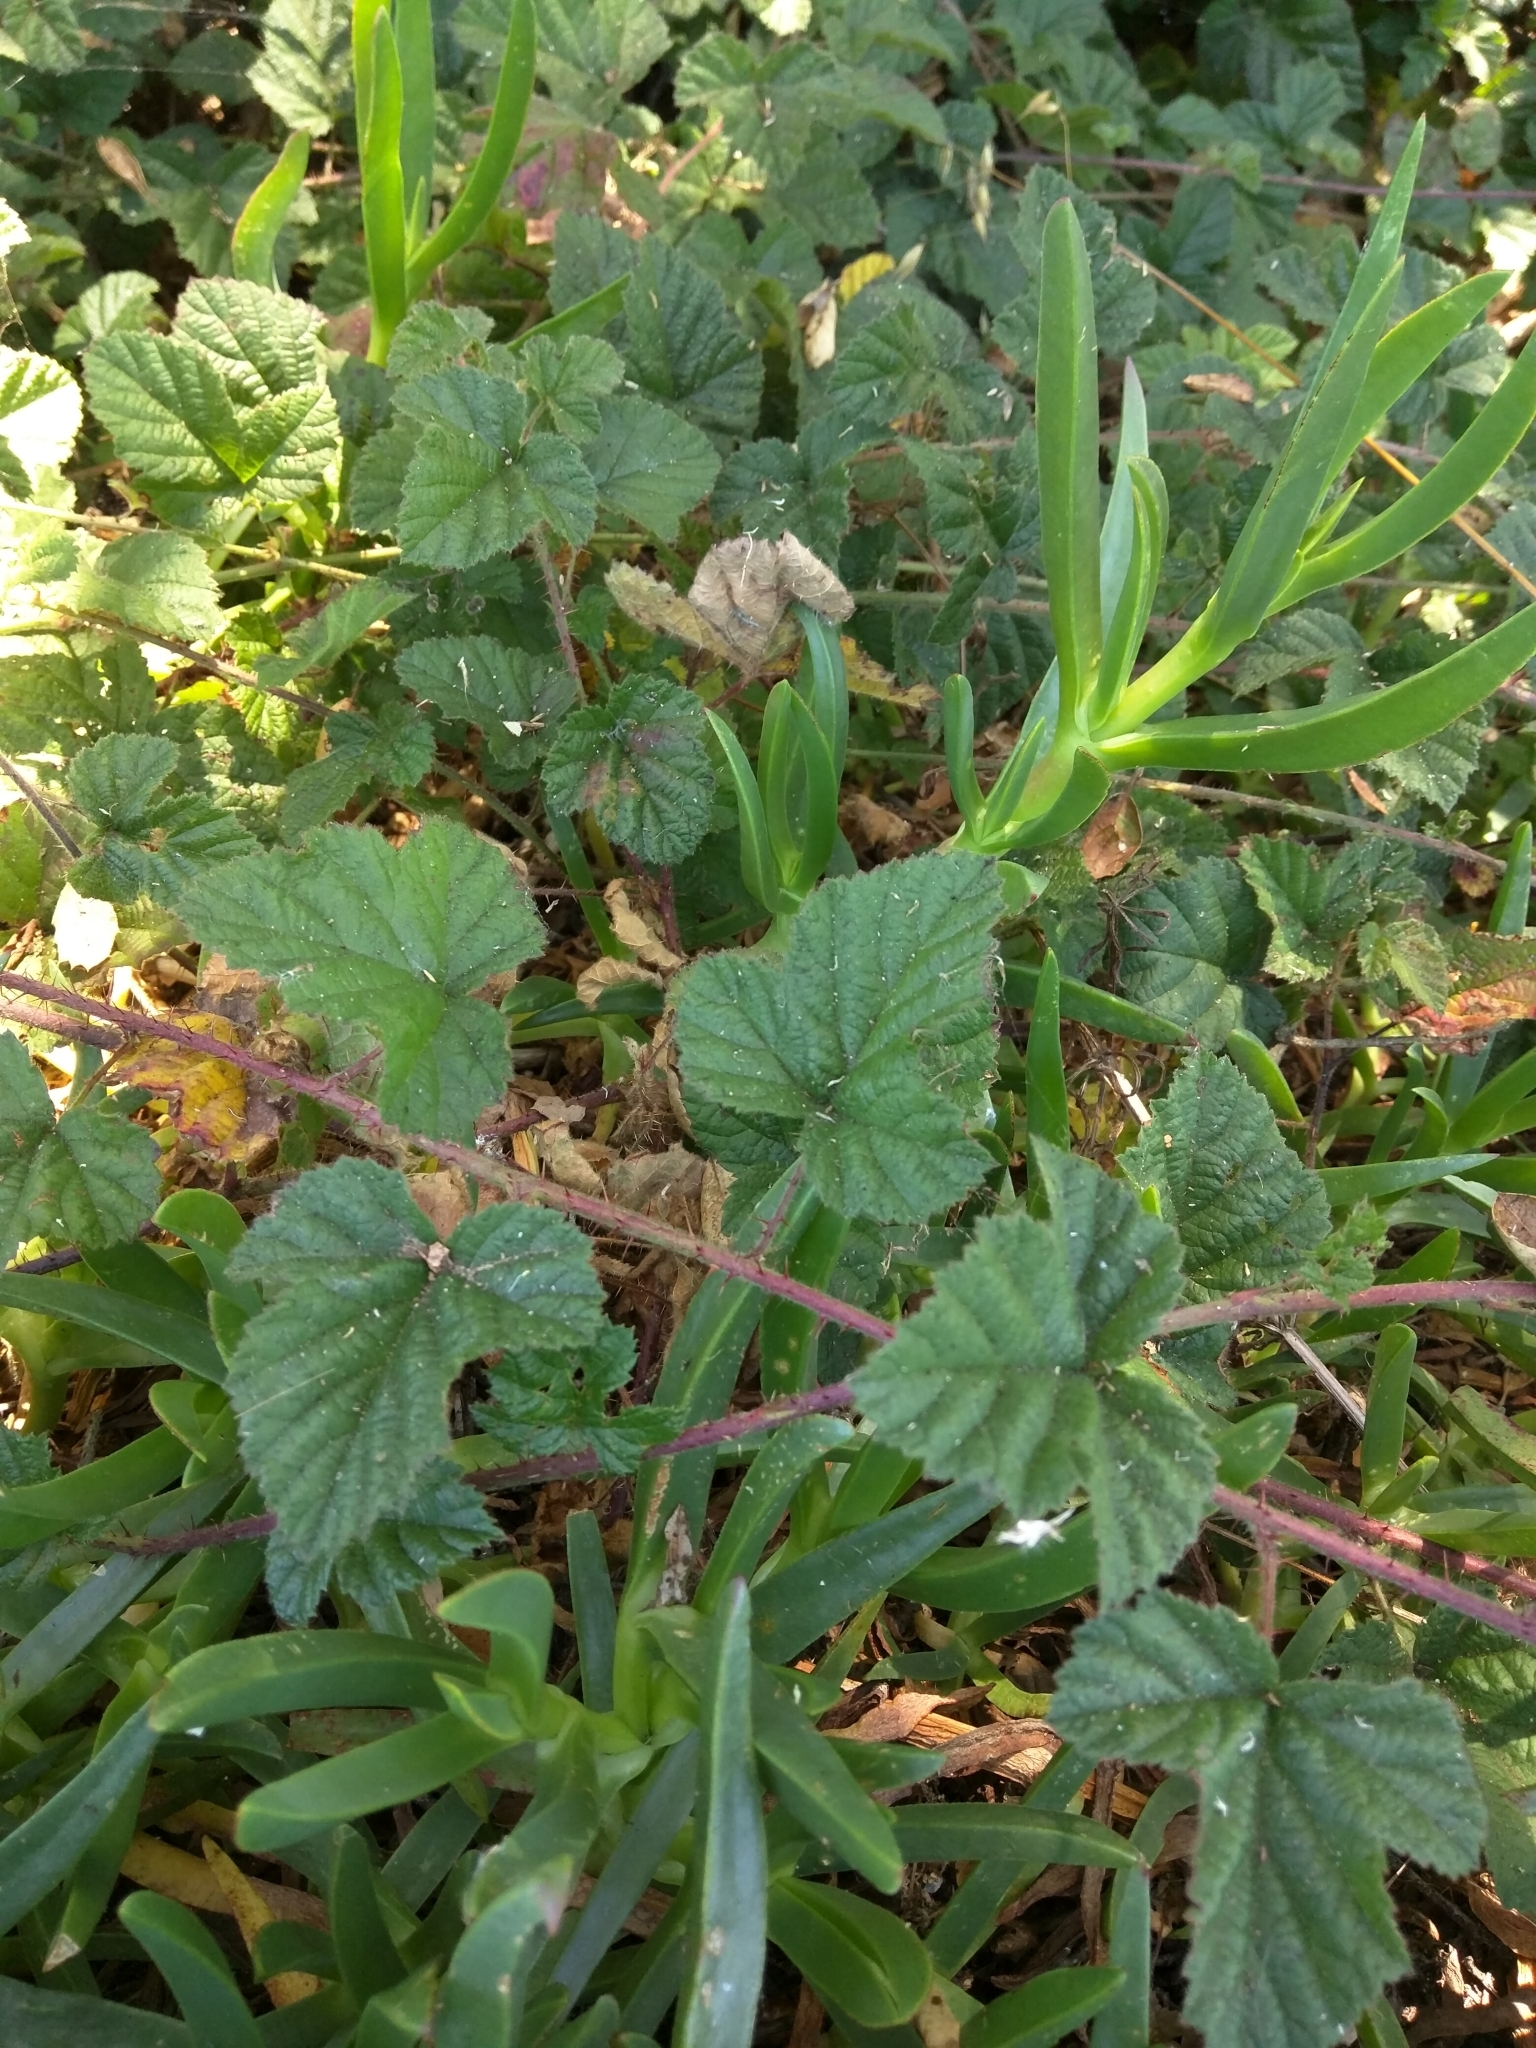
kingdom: Plantae
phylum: Tracheophyta
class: Magnoliopsida
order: Rosales
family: Rosaceae
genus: Rubus
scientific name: Rubus ursinus
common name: Pacific blackberry
